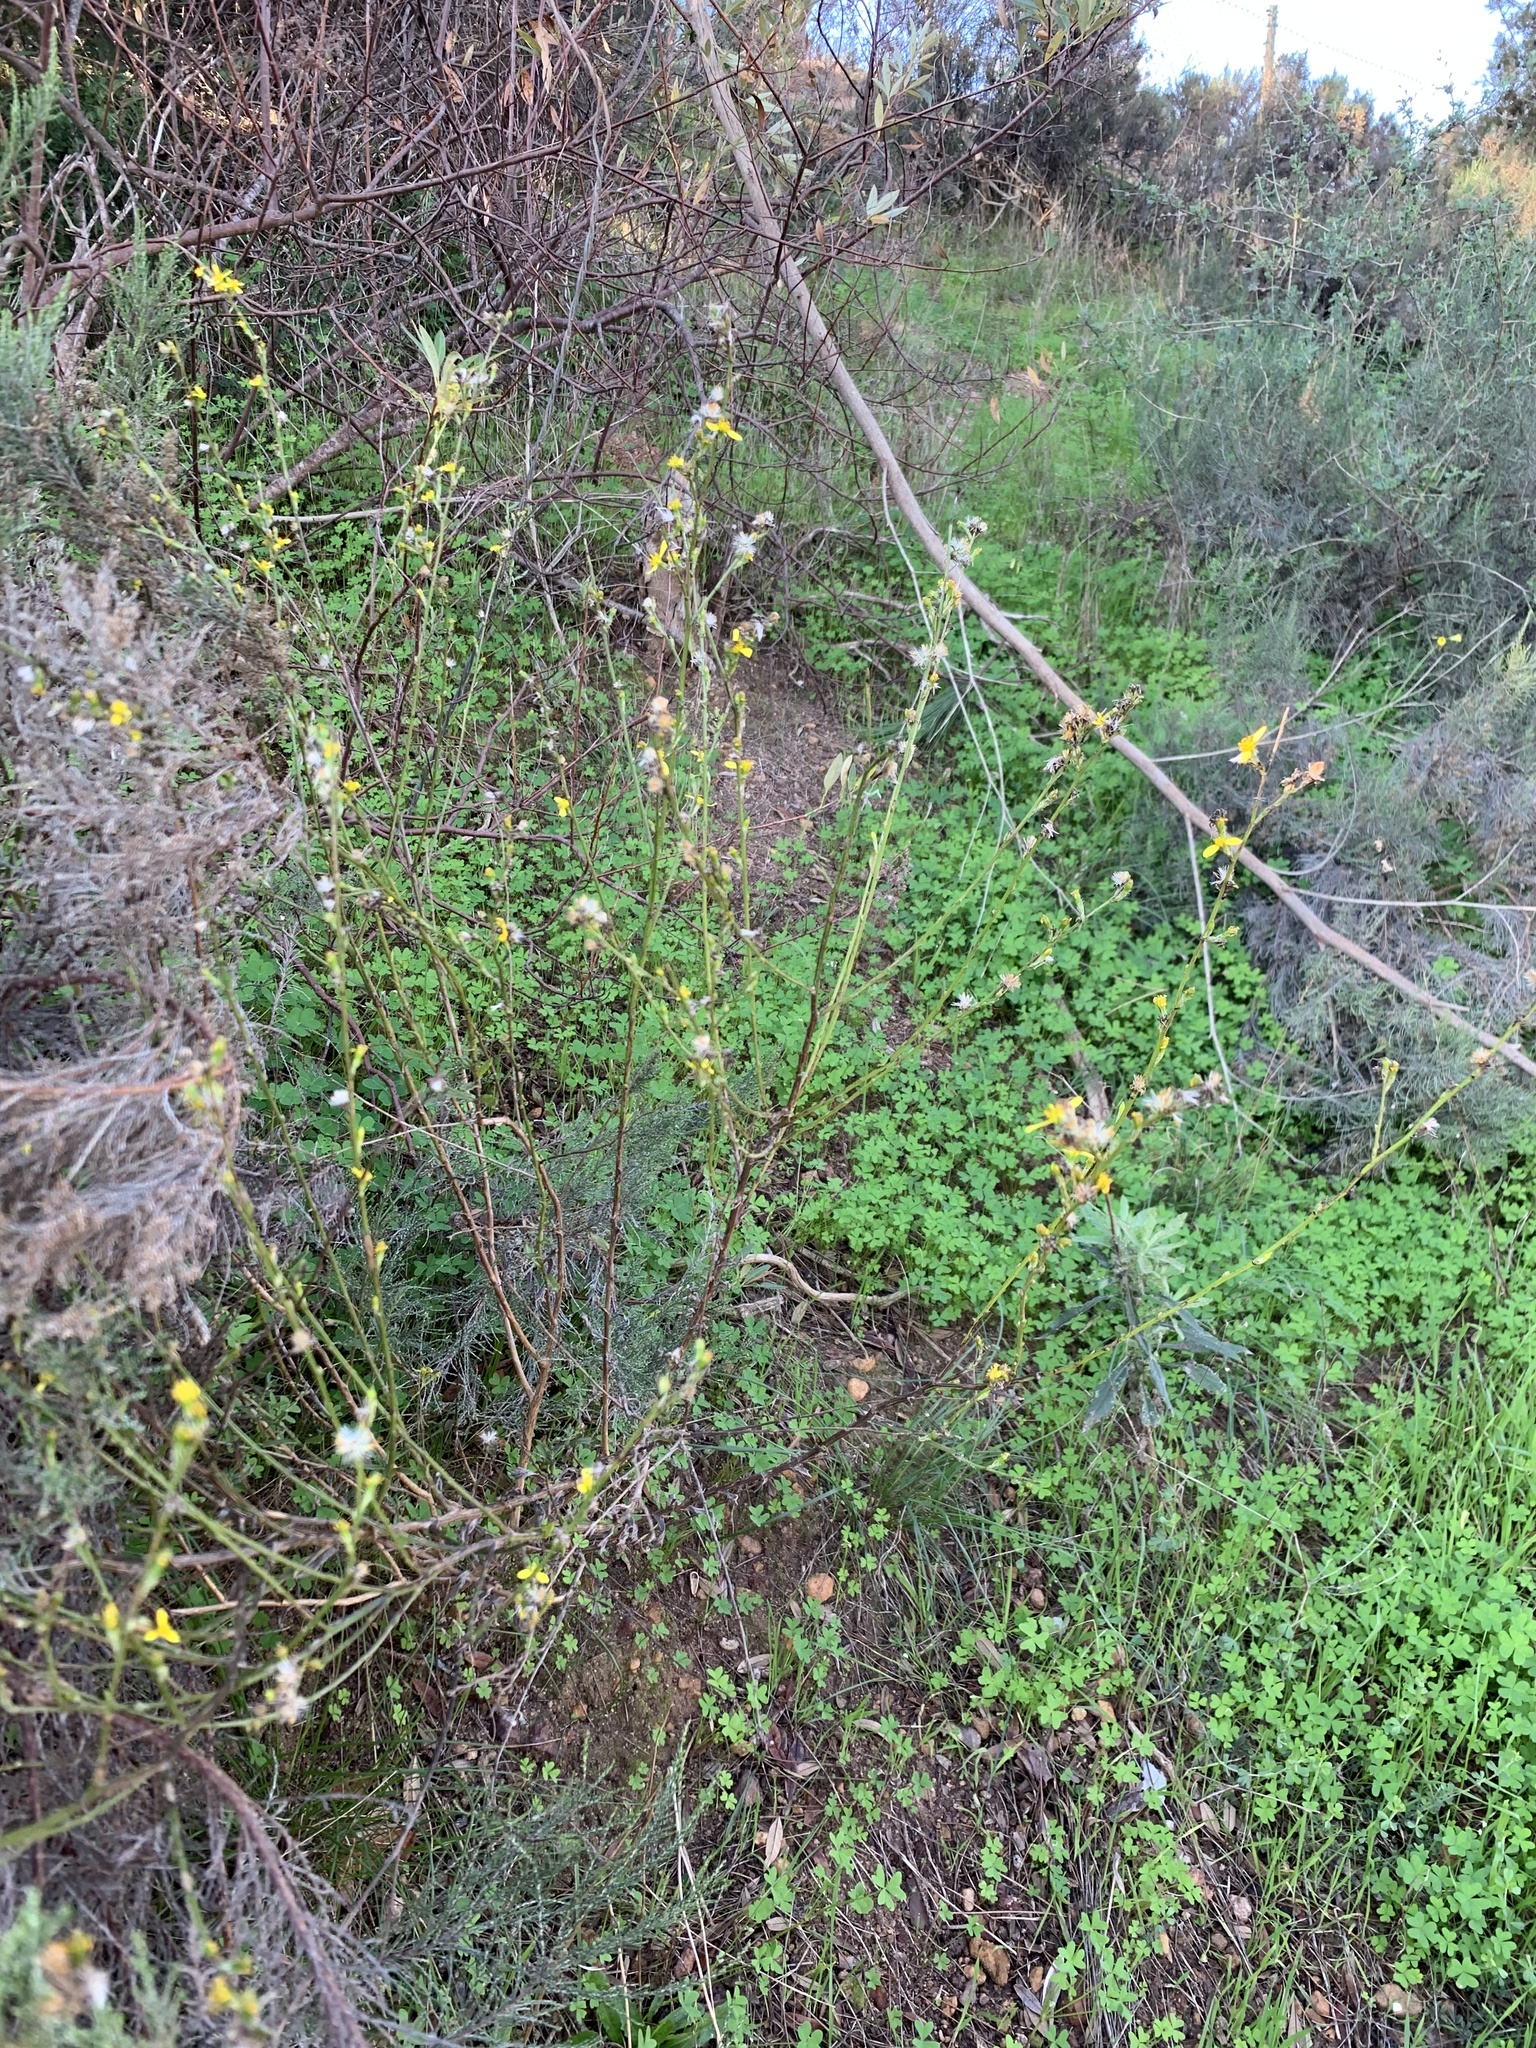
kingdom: Plantae
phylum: Tracheophyta
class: Magnoliopsida
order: Asterales
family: Asteraceae
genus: Senecio
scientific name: Senecio pubigerus
